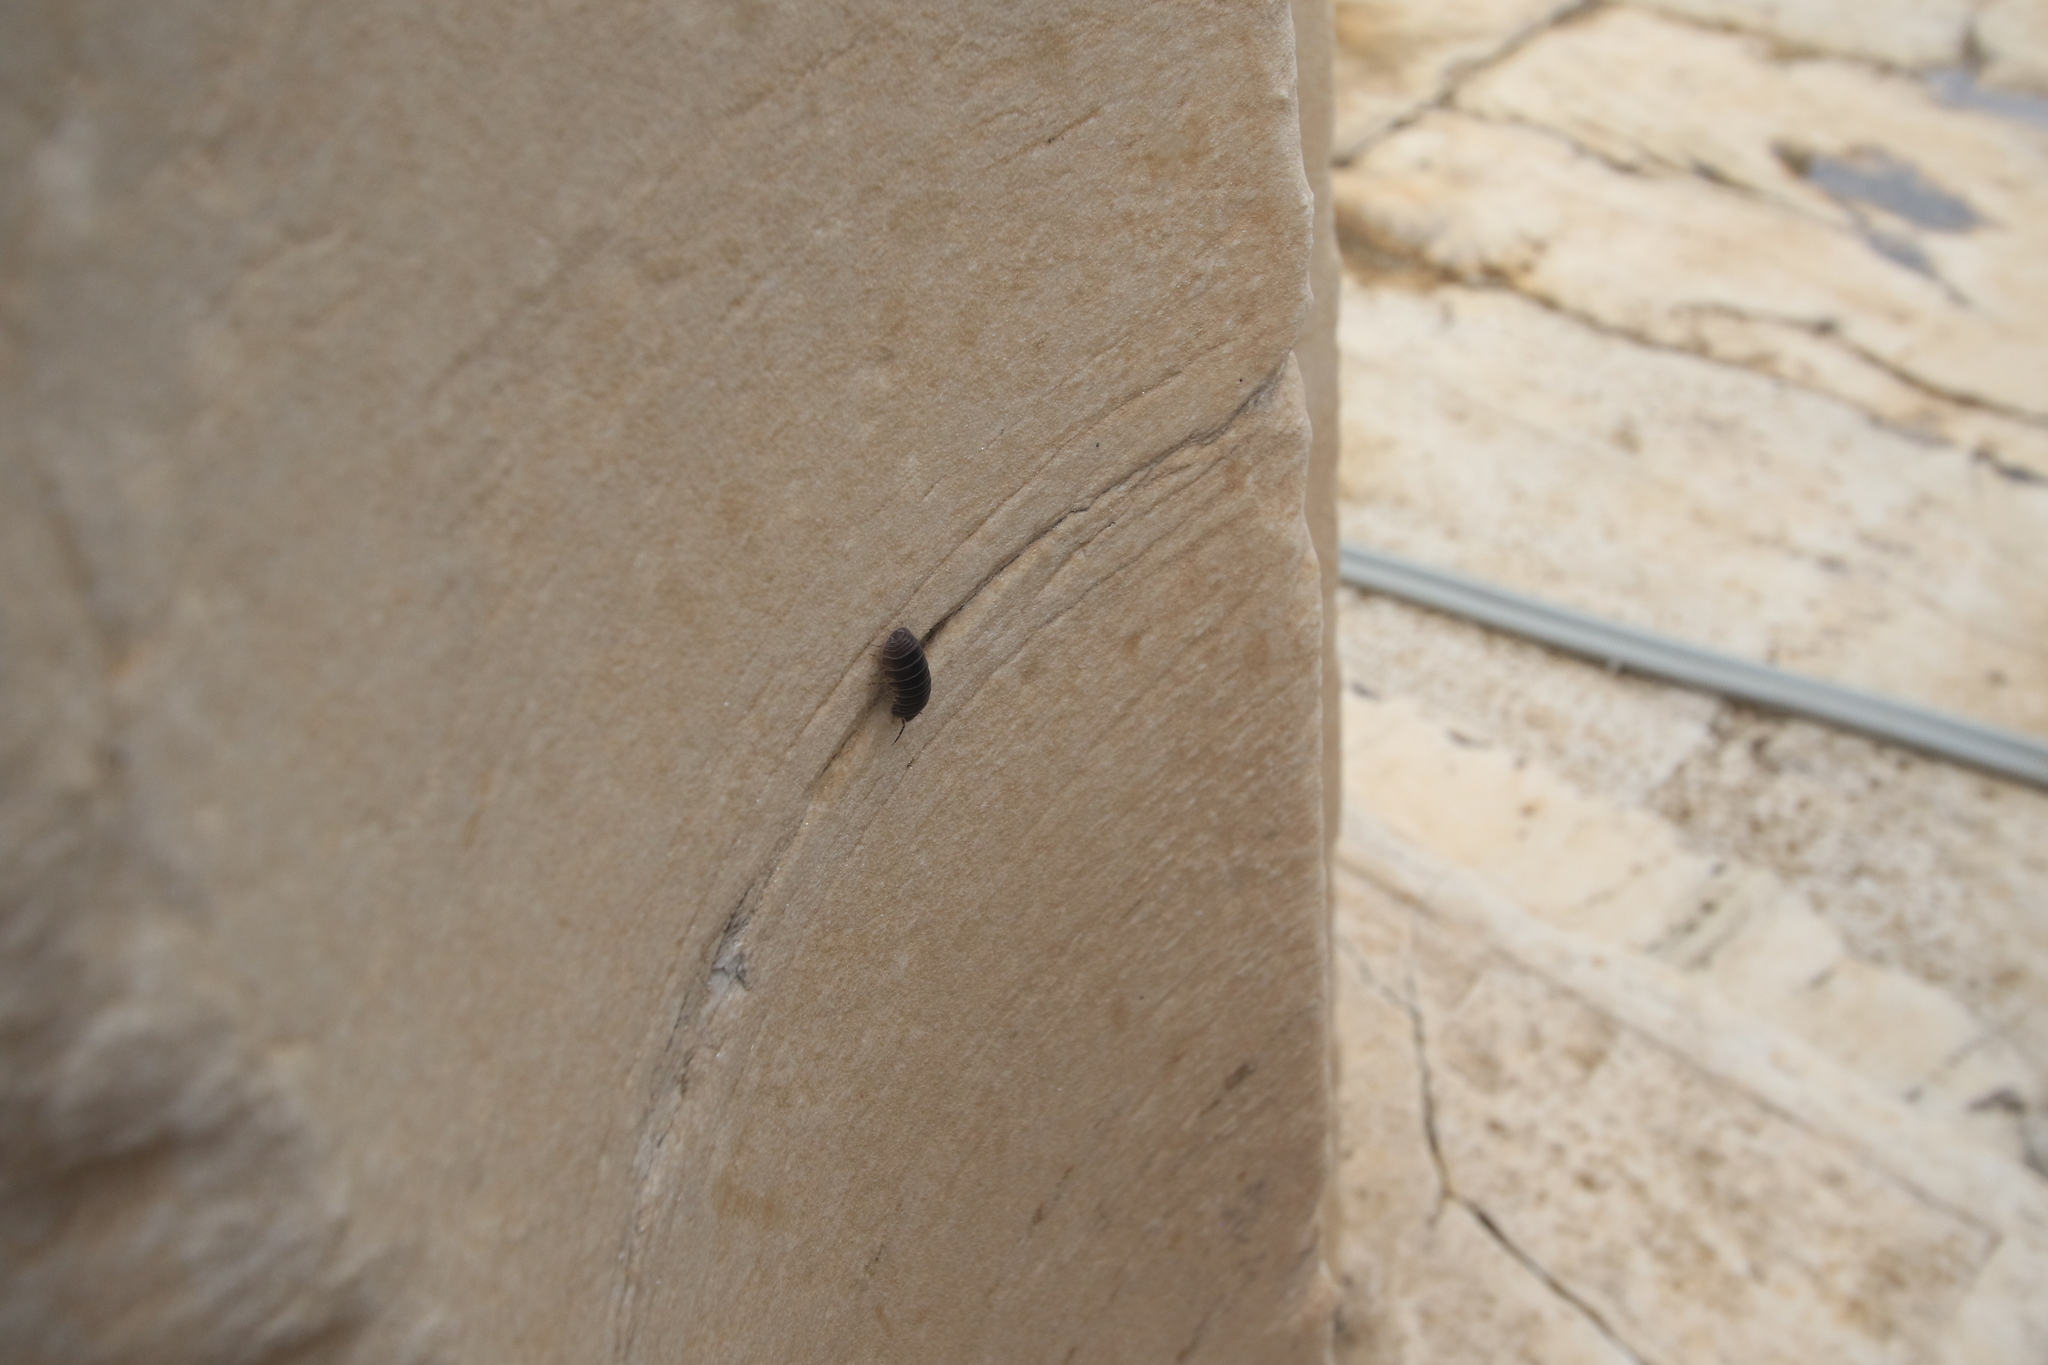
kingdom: Animalia
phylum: Arthropoda
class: Malacostraca
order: Isopoda
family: Armadillidae
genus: Armadillo
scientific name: Armadillo officinalis
